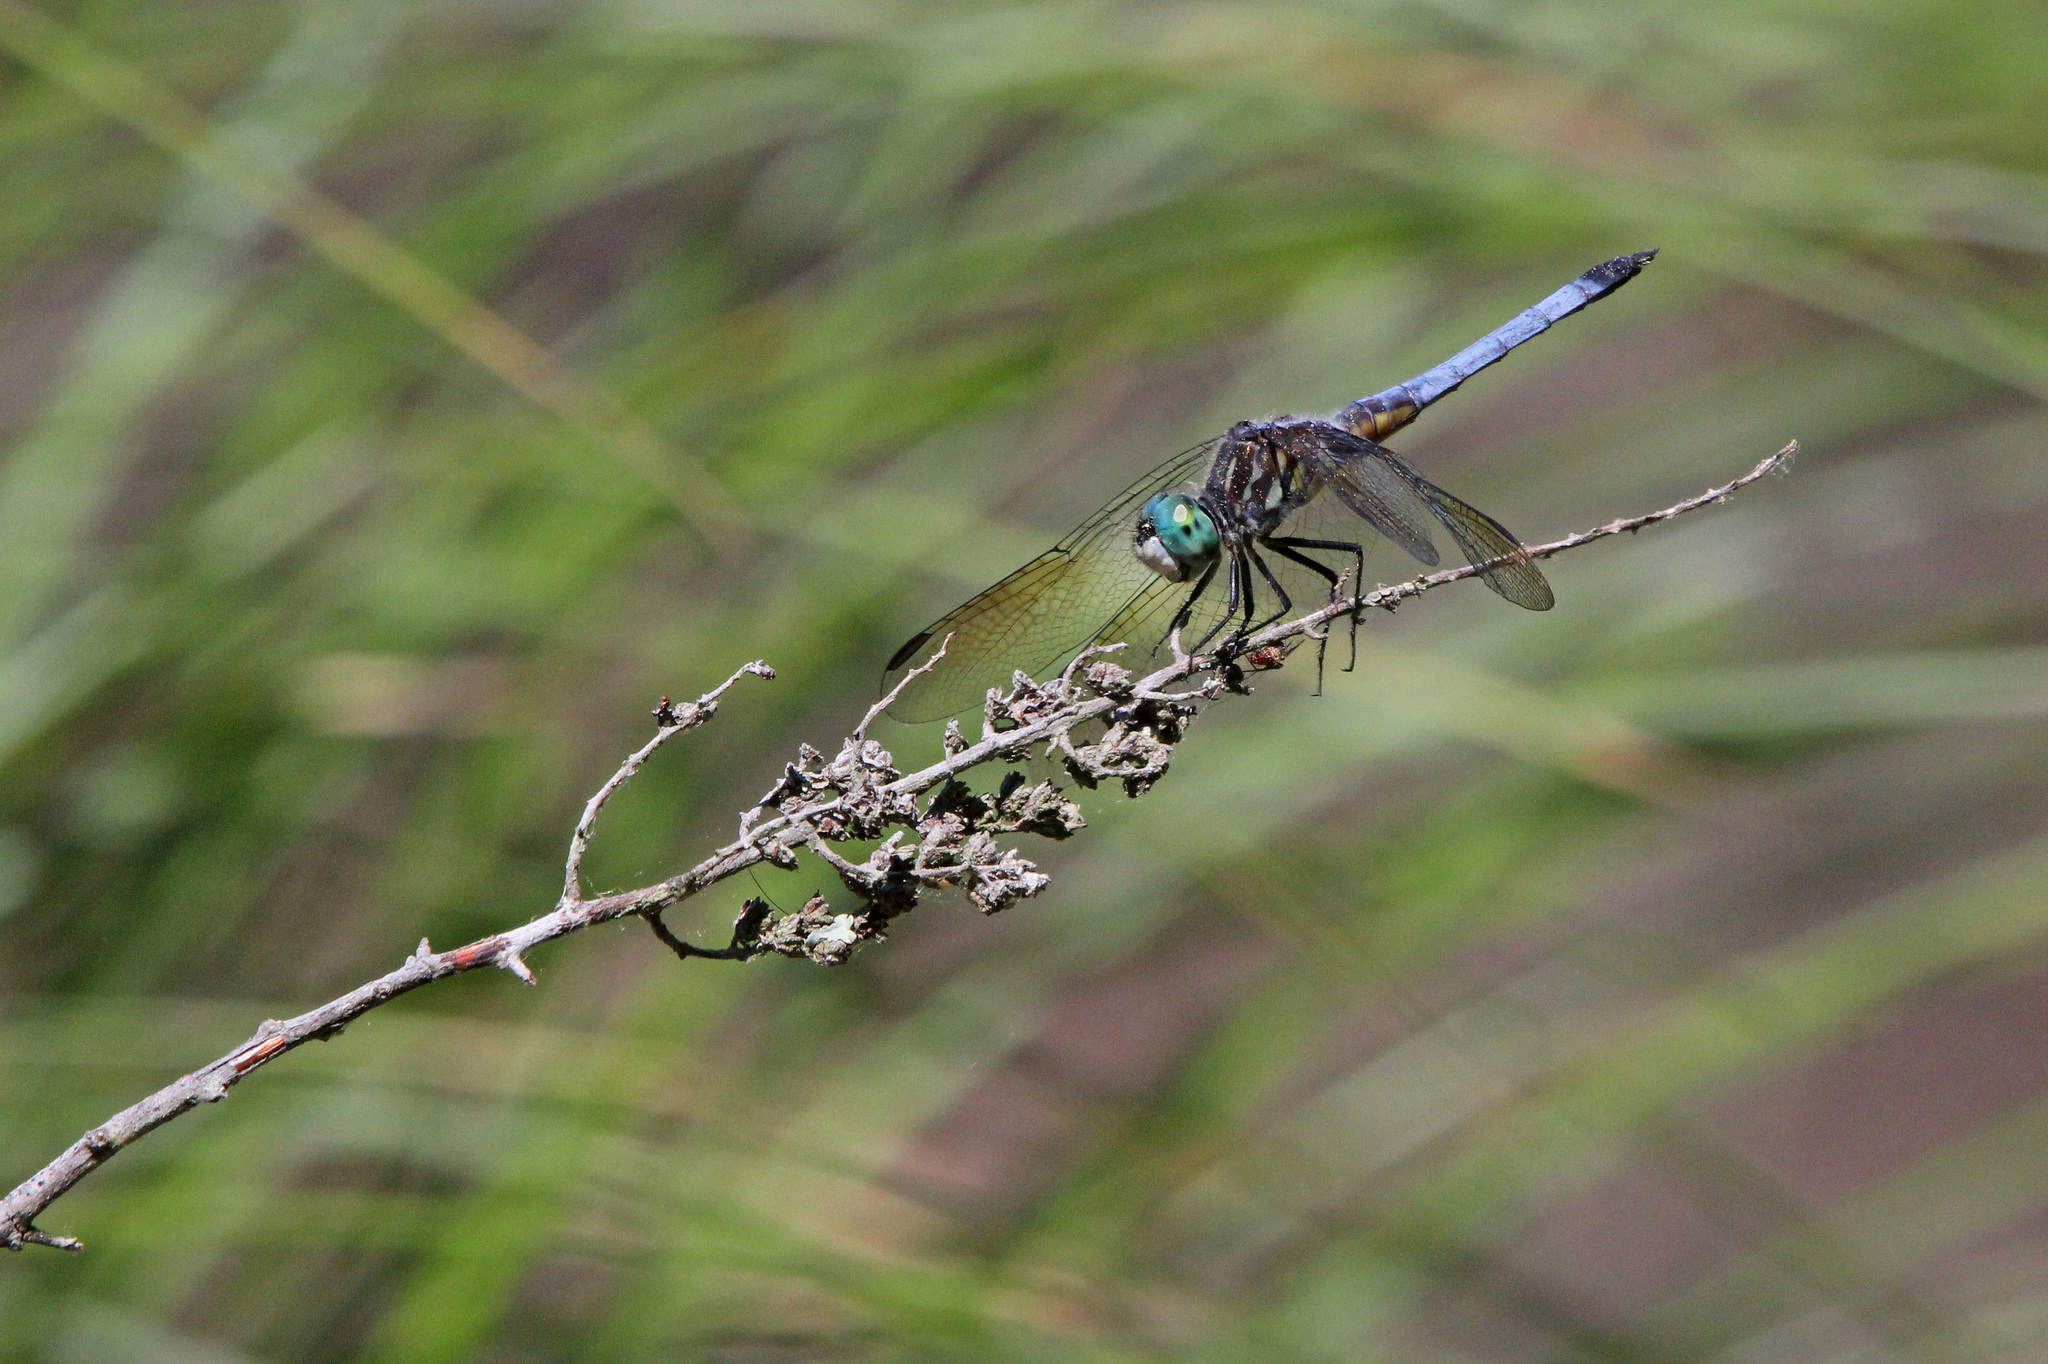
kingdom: Animalia
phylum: Arthropoda
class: Insecta
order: Odonata
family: Libellulidae
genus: Pachydiplax
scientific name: Pachydiplax longipennis
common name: Blue dasher
